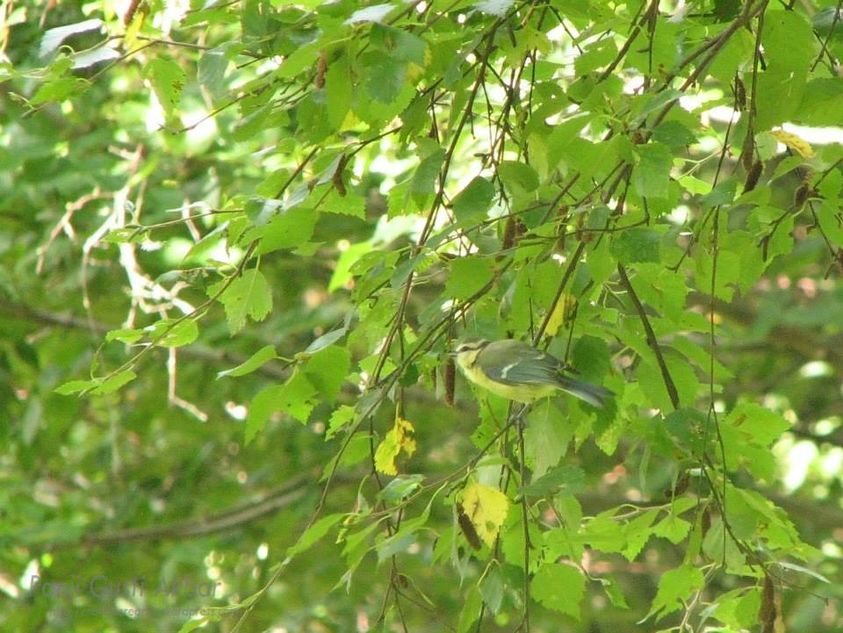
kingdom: Animalia
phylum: Chordata
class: Aves
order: Passeriformes
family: Paridae
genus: Cyanistes
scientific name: Cyanistes caeruleus
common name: Eurasian blue tit
